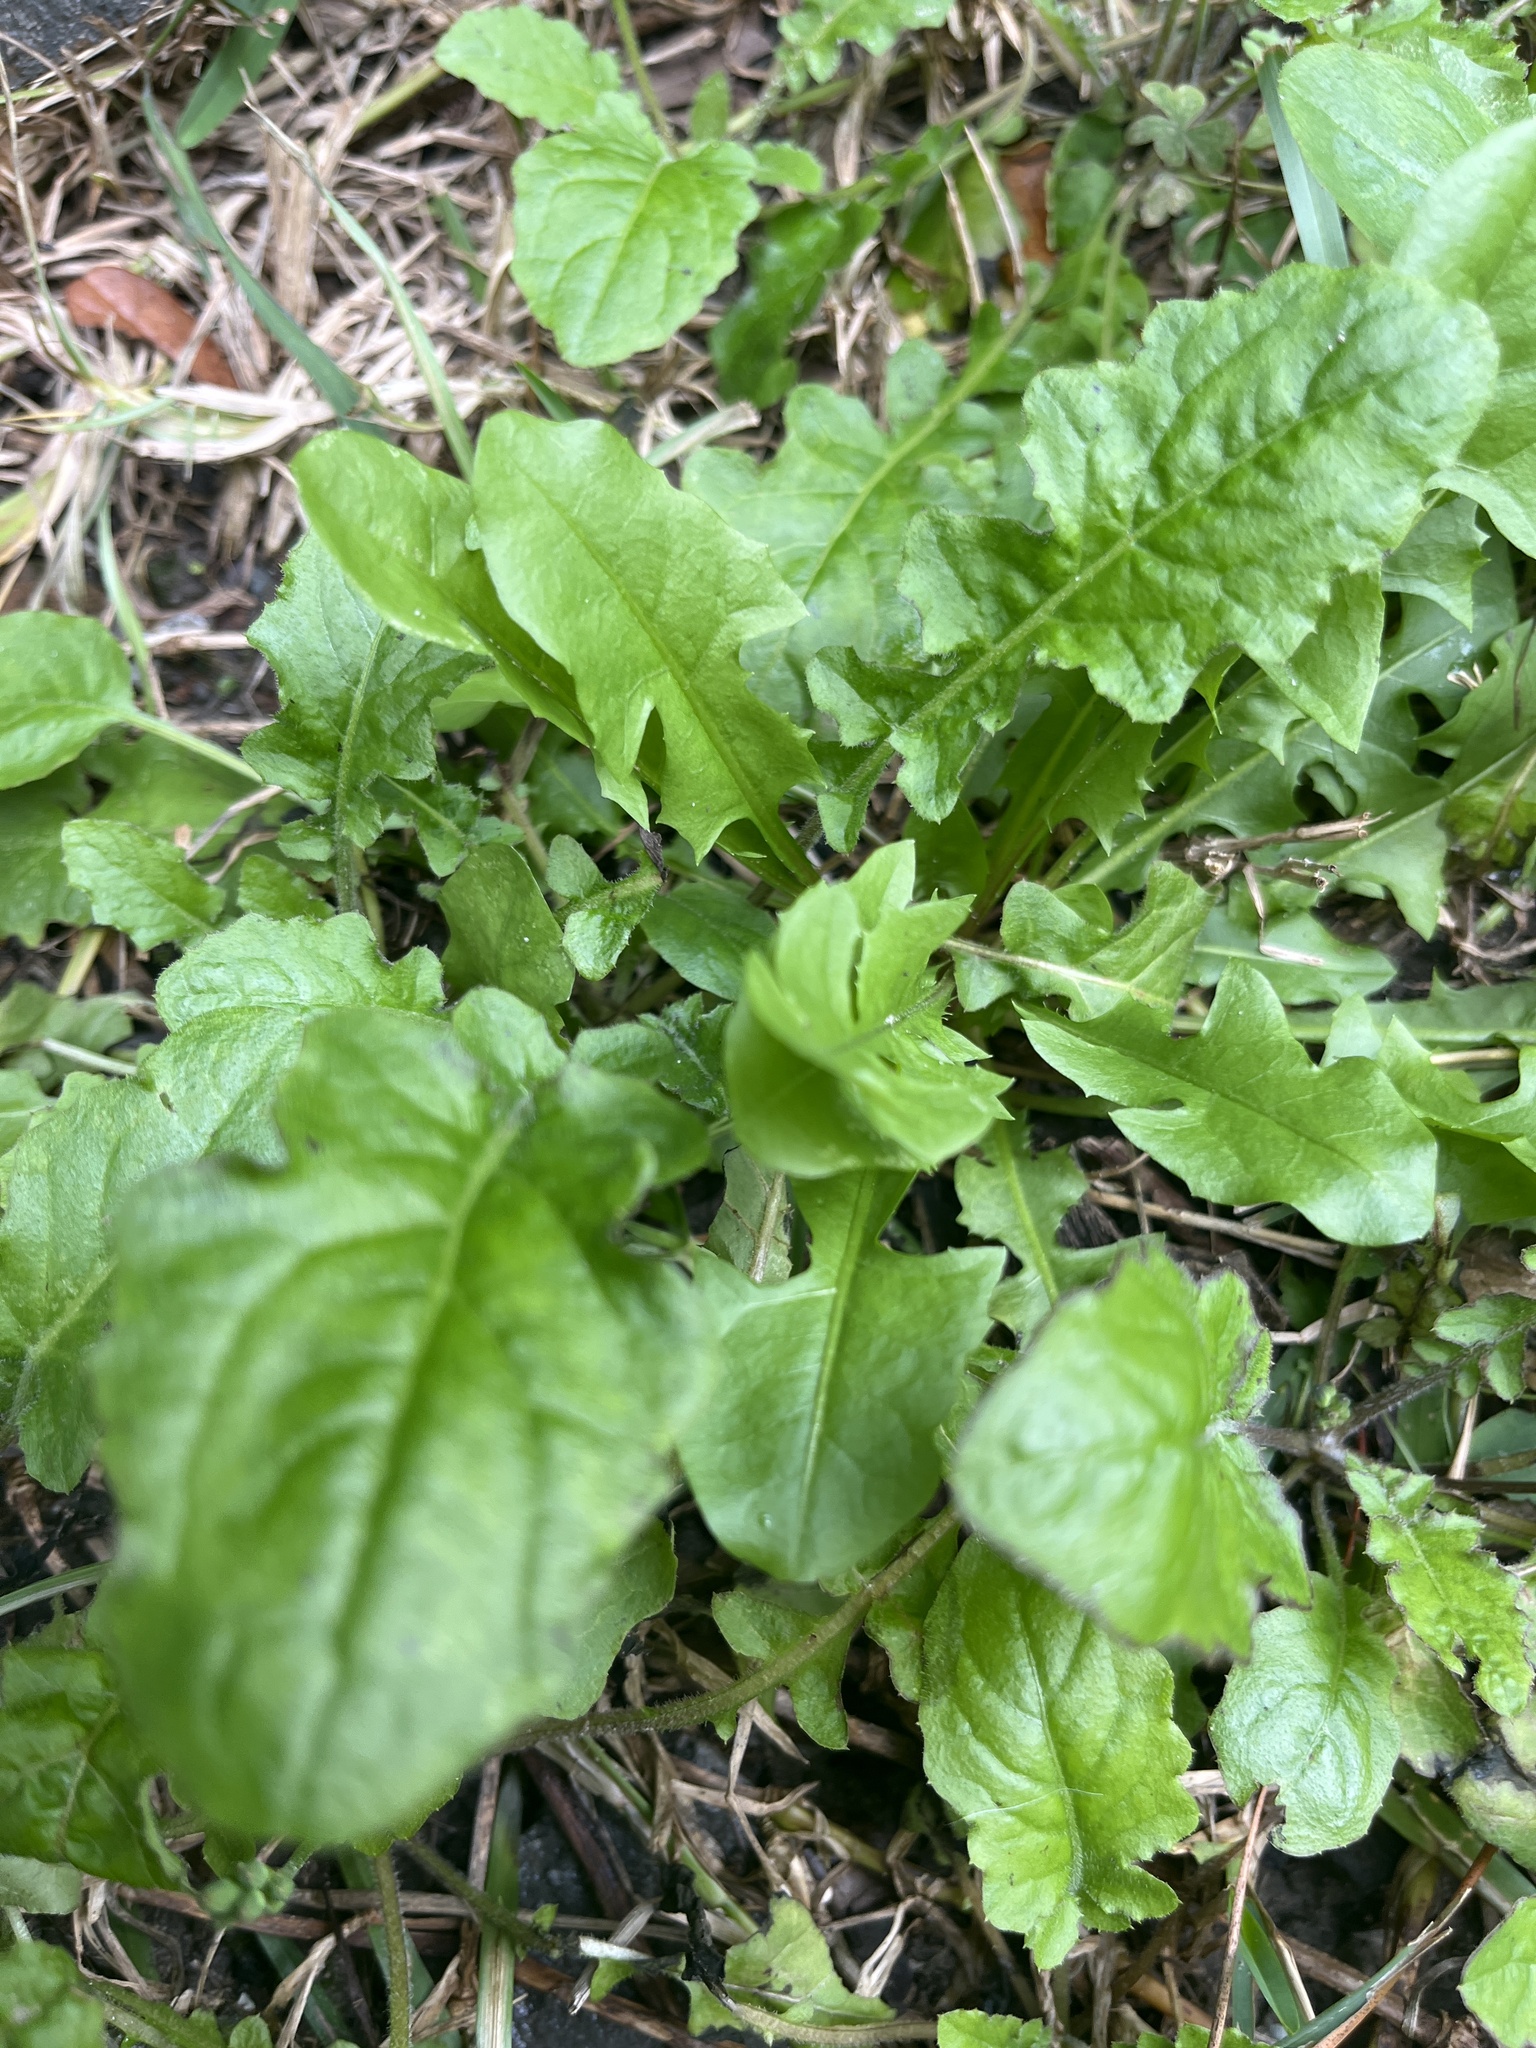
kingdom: Plantae
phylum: Tracheophyta
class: Magnoliopsida
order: Asterales
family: Asteraceae
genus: Youngia
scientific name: Youngia japonica
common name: Oriental false hawksbeard
